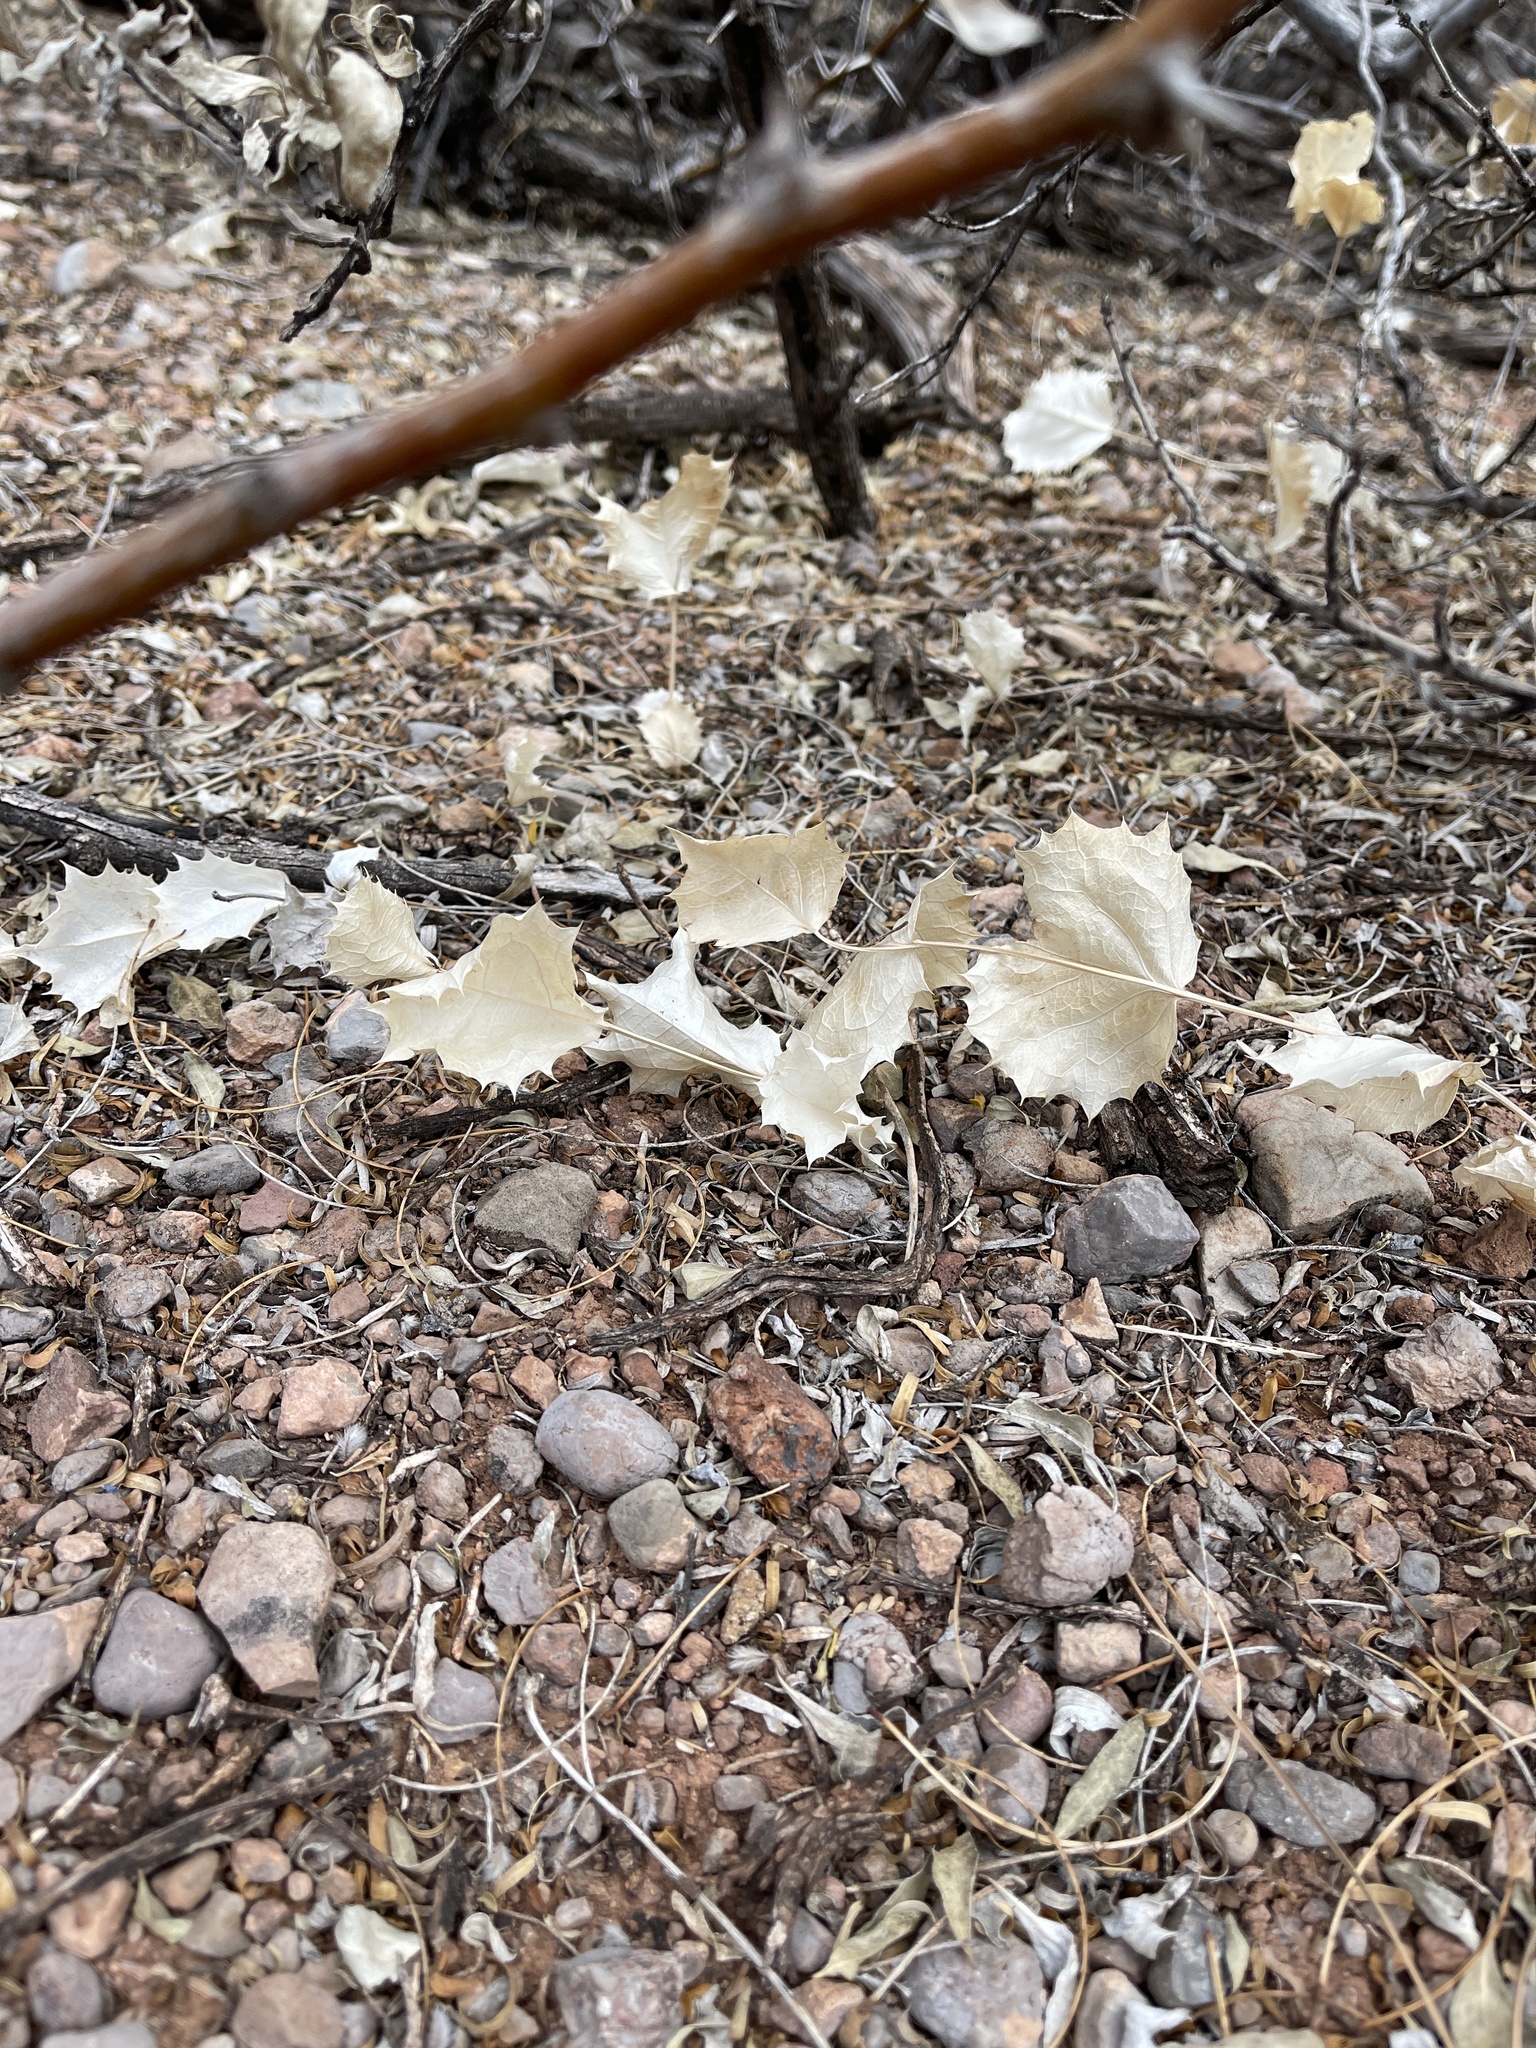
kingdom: Plantae
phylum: Tracheophyta
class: Magnoliopsida
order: Asterales
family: Asteraceae
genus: Acourtia
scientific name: Acourtia nana
